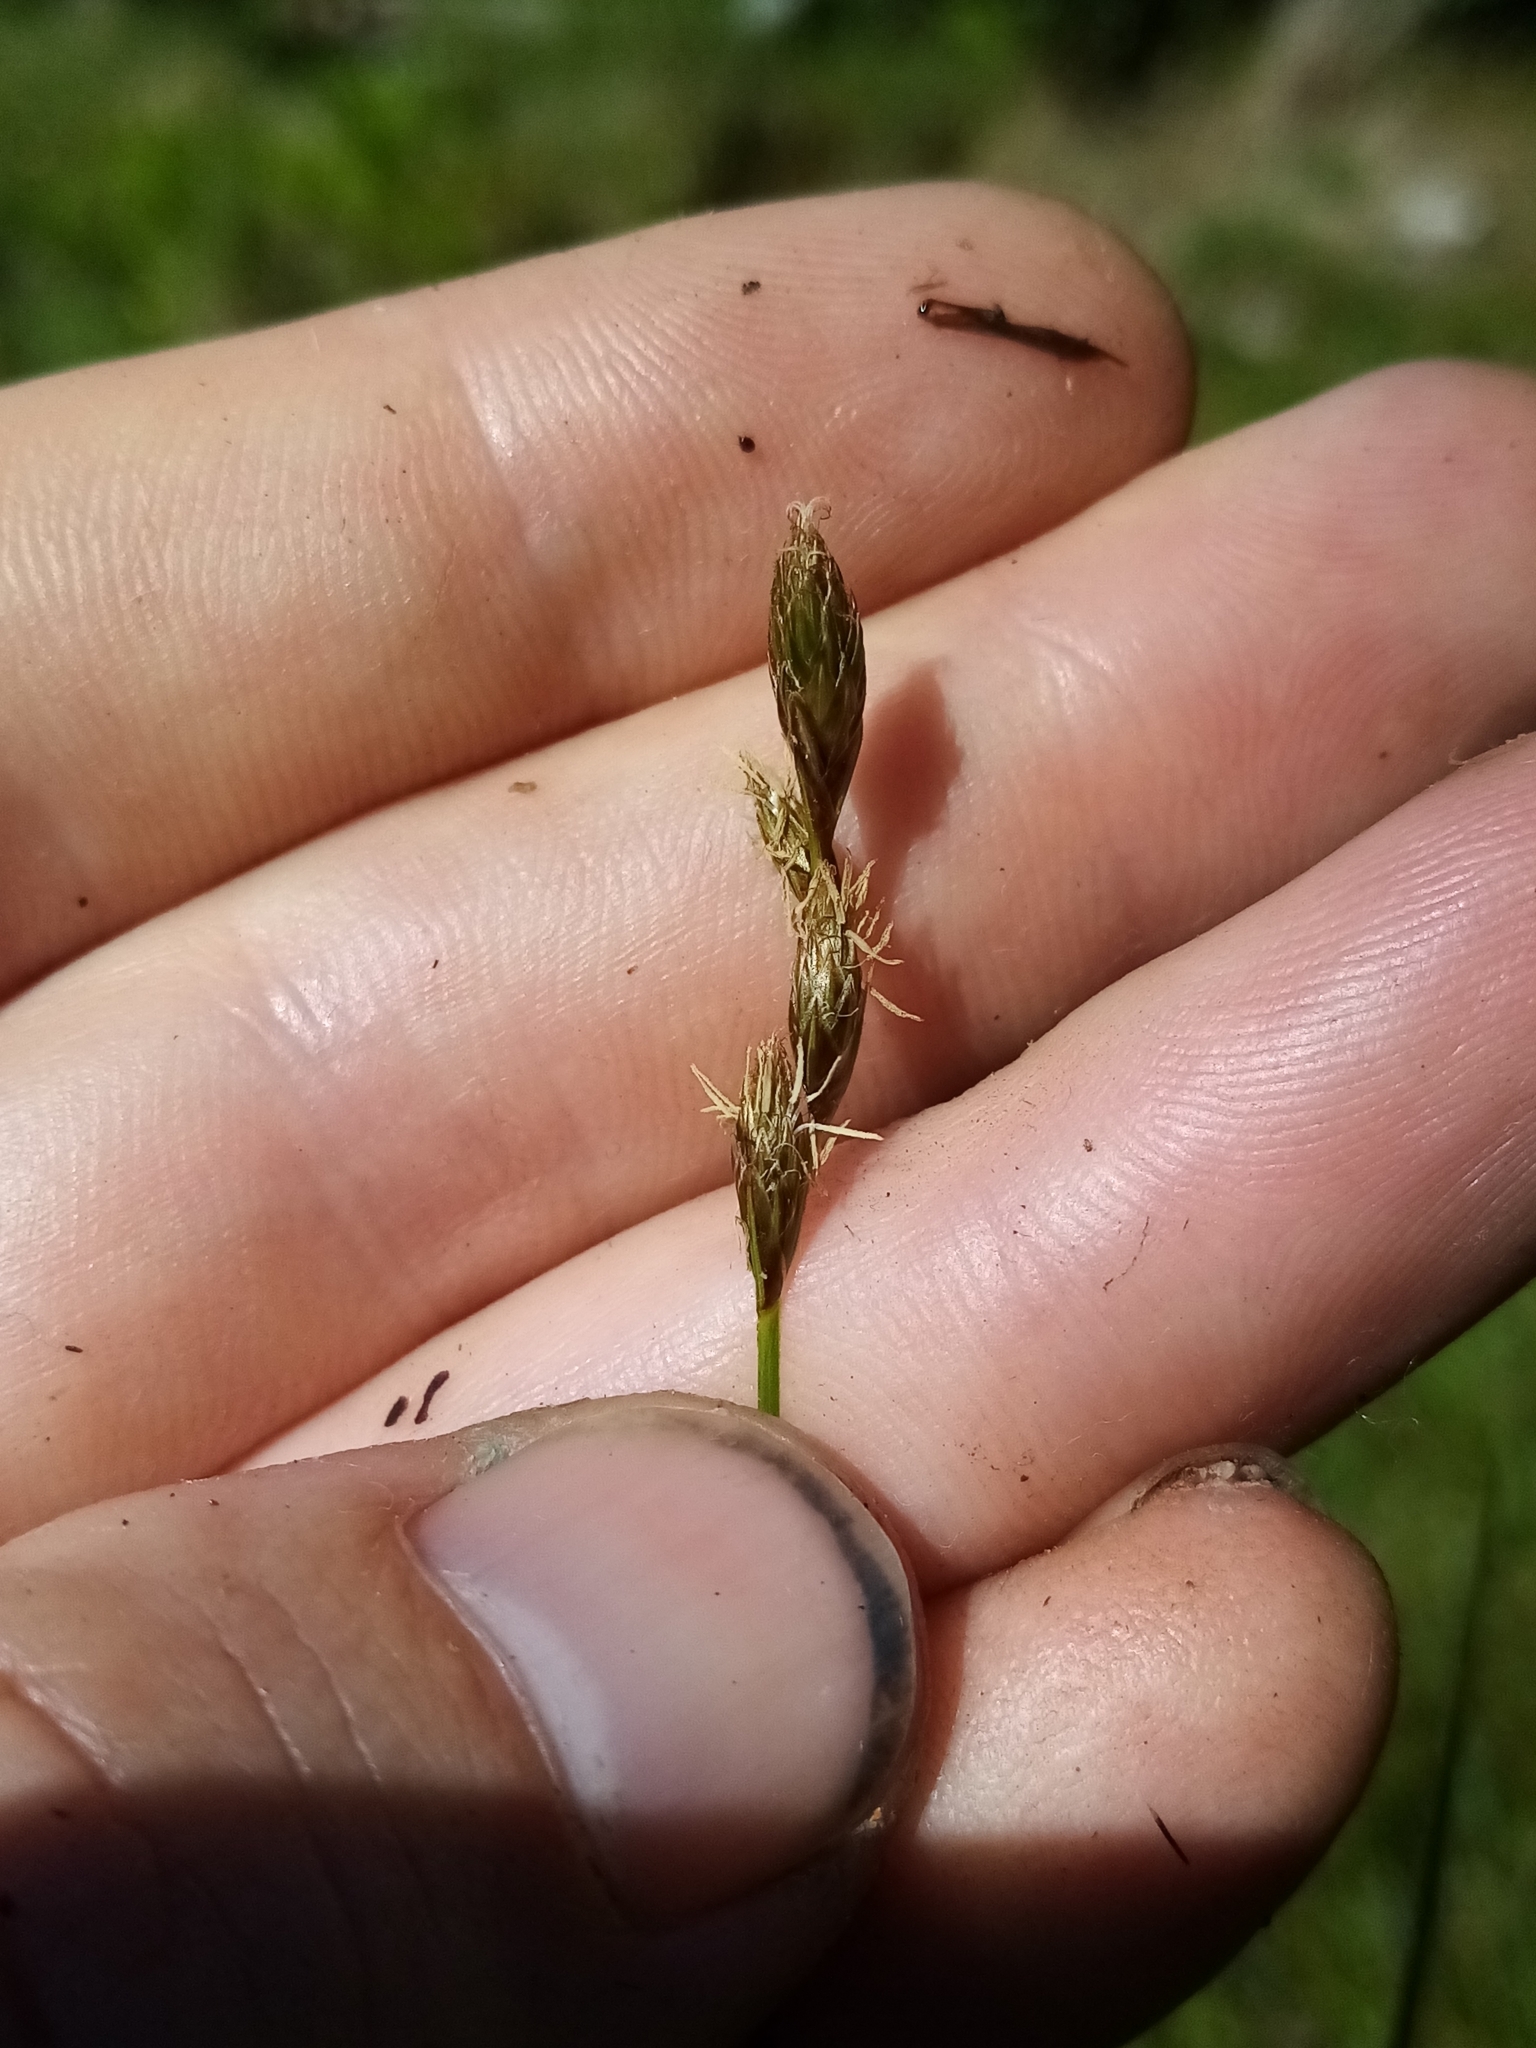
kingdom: Plantae
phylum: Tracheophyta
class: Liliopsida
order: Poales
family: Cyperaceae
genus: Carex
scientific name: Carex leporina
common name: Oval sedge
